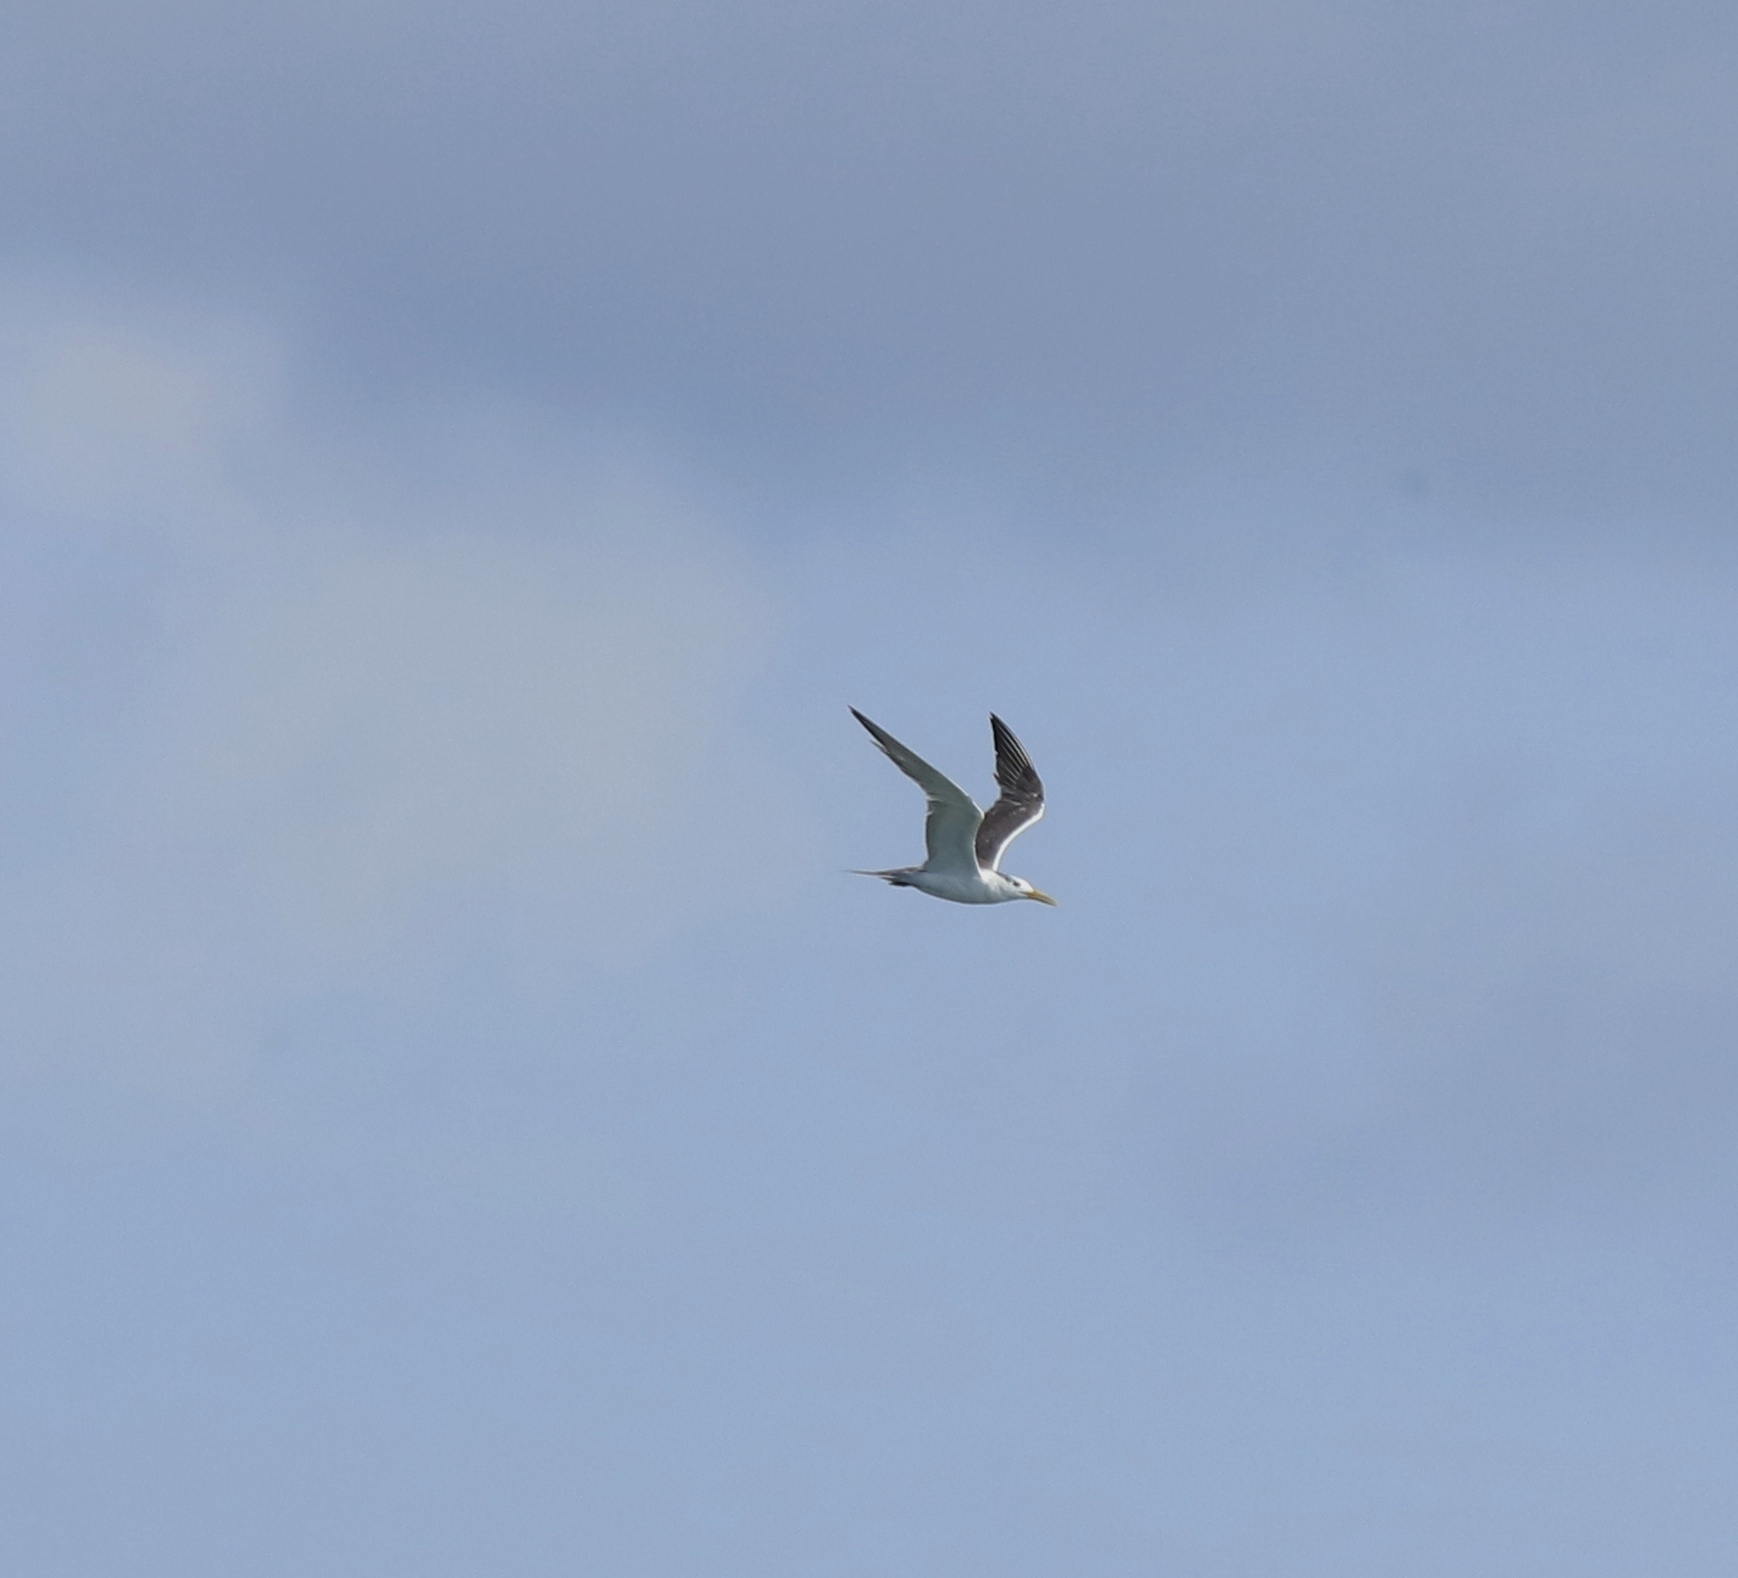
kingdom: Animalia
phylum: Chordata
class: Aves
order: Charadriiformes
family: Laridae
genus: Thalasseus
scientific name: Thalasseus bergii
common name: Greater crested tern
